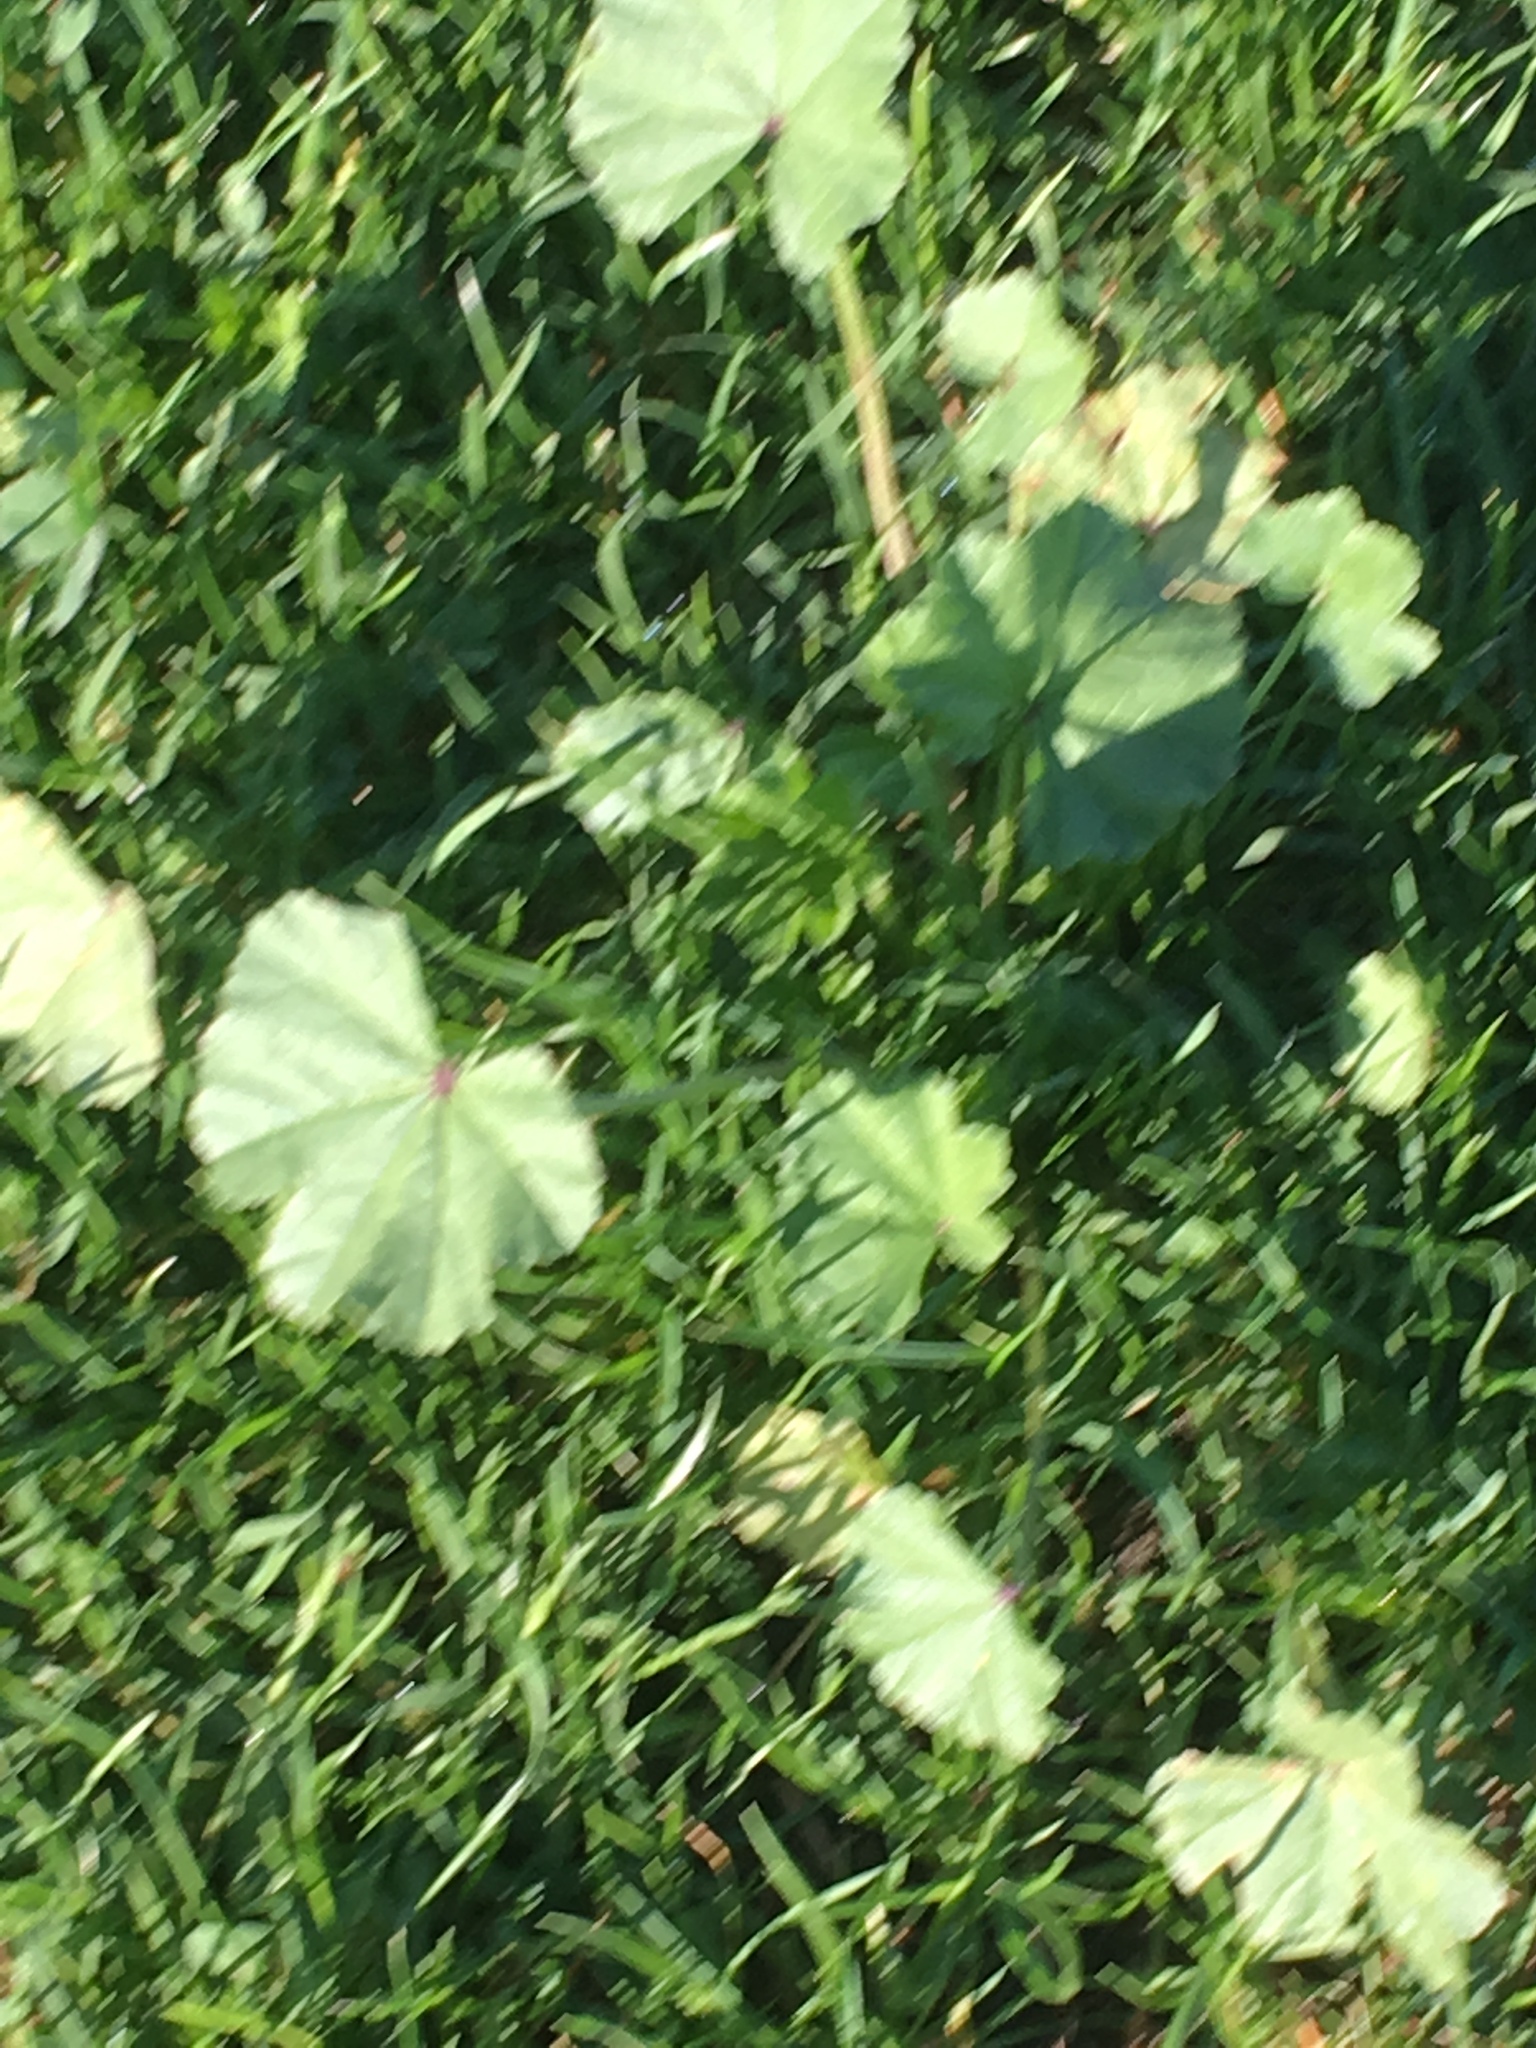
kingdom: Plantae
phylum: Tracheophyta
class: Magnoliopsida
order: Malvales
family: Malvaceae
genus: Malva
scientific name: Malva
